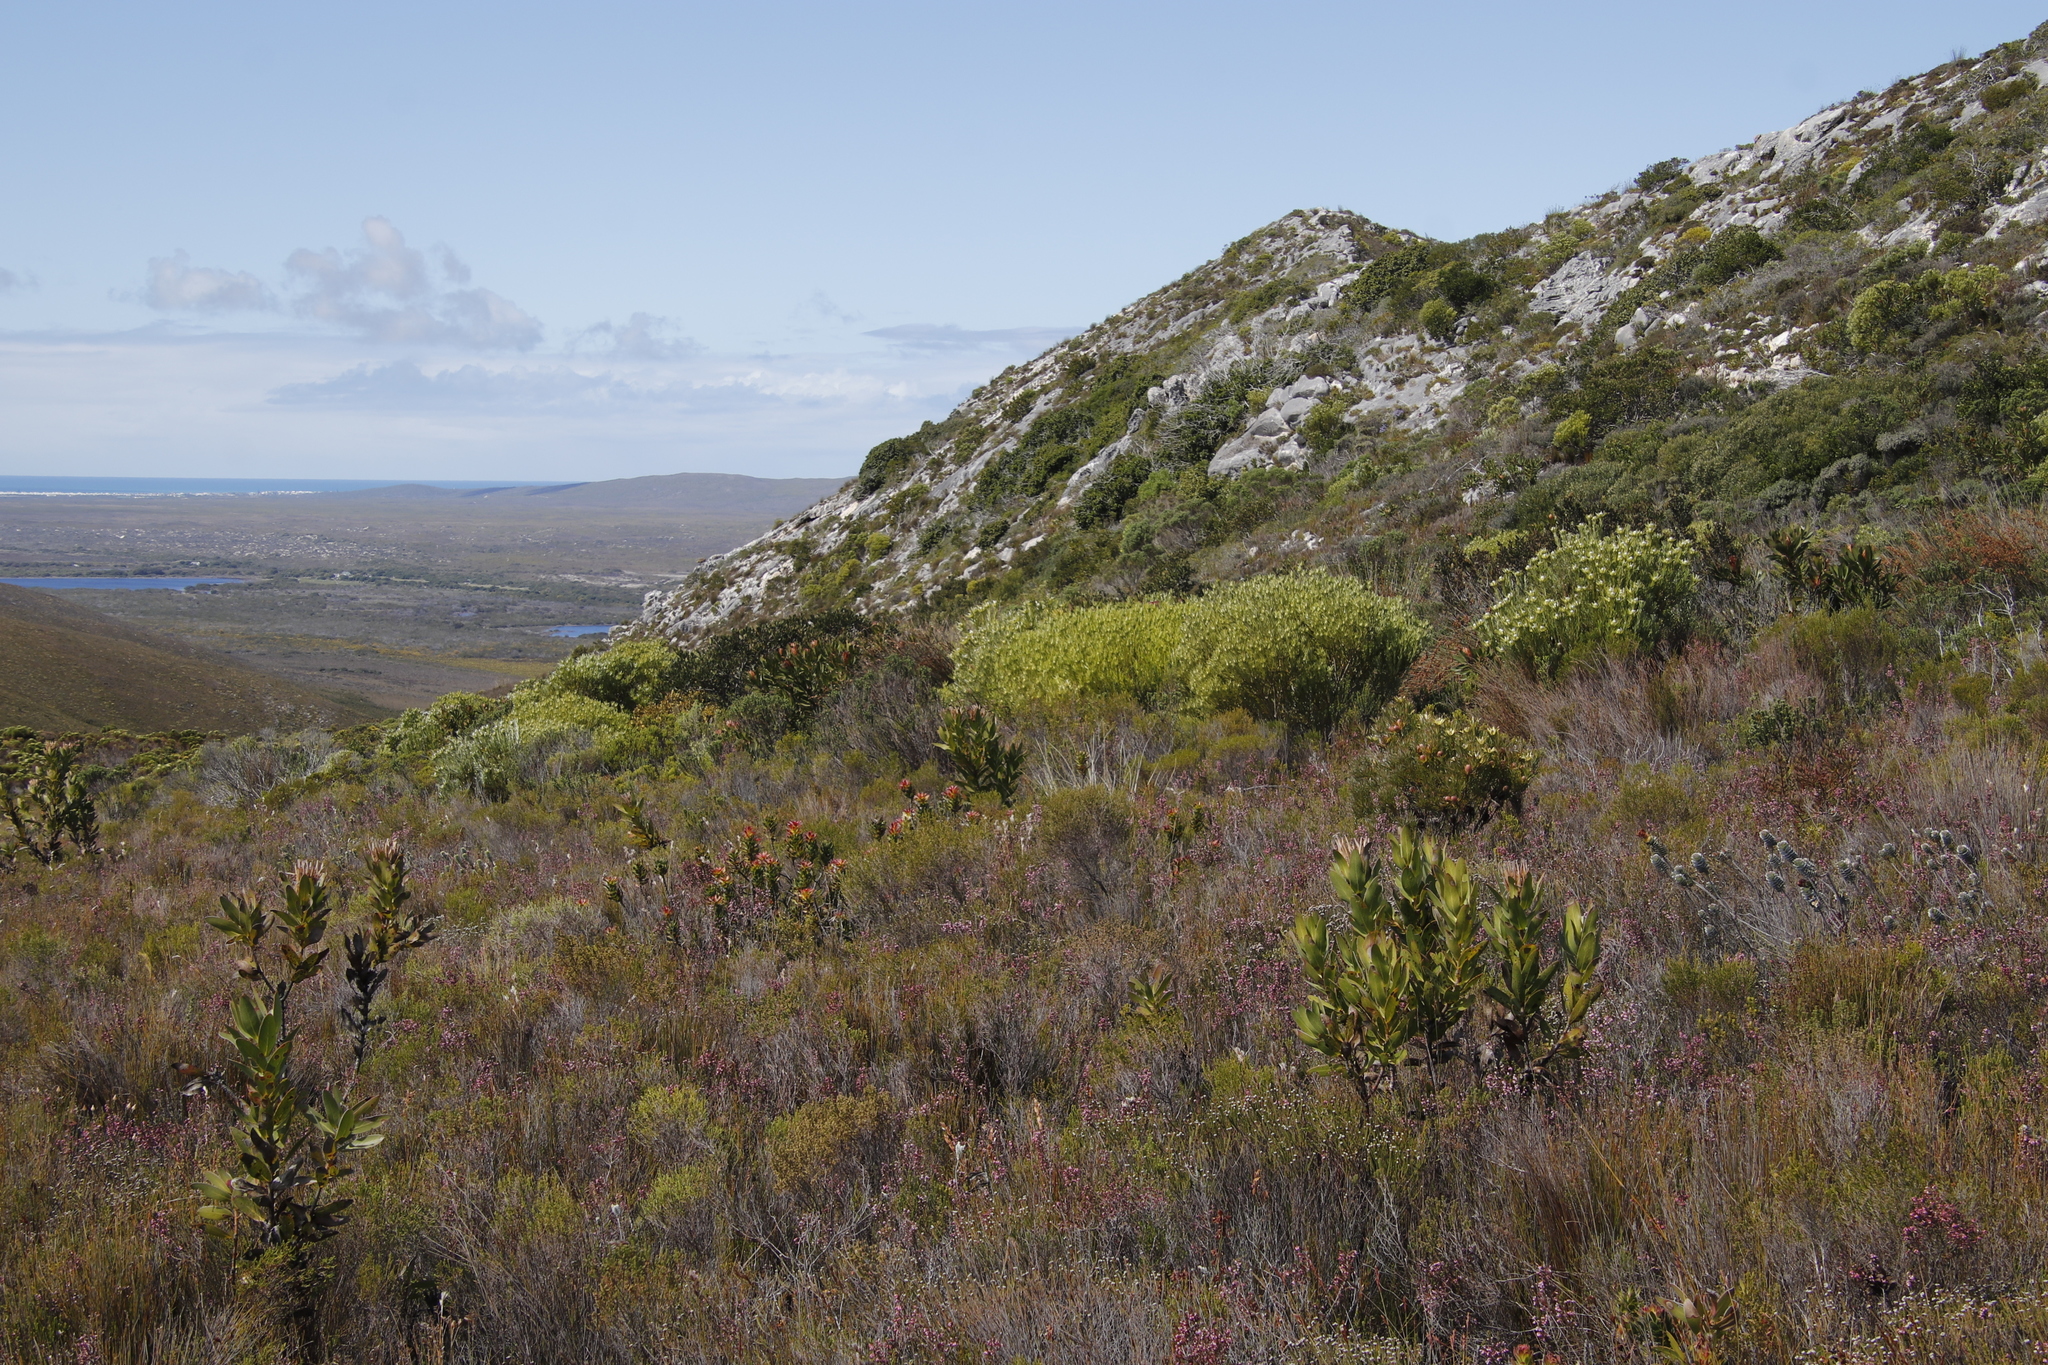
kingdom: Plantae
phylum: Tracheophyta
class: Magnoliopsida
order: Proteales
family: Proteaceae
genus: Leucadendron
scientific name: Leucadendron meridianum
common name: Limestone conebush
